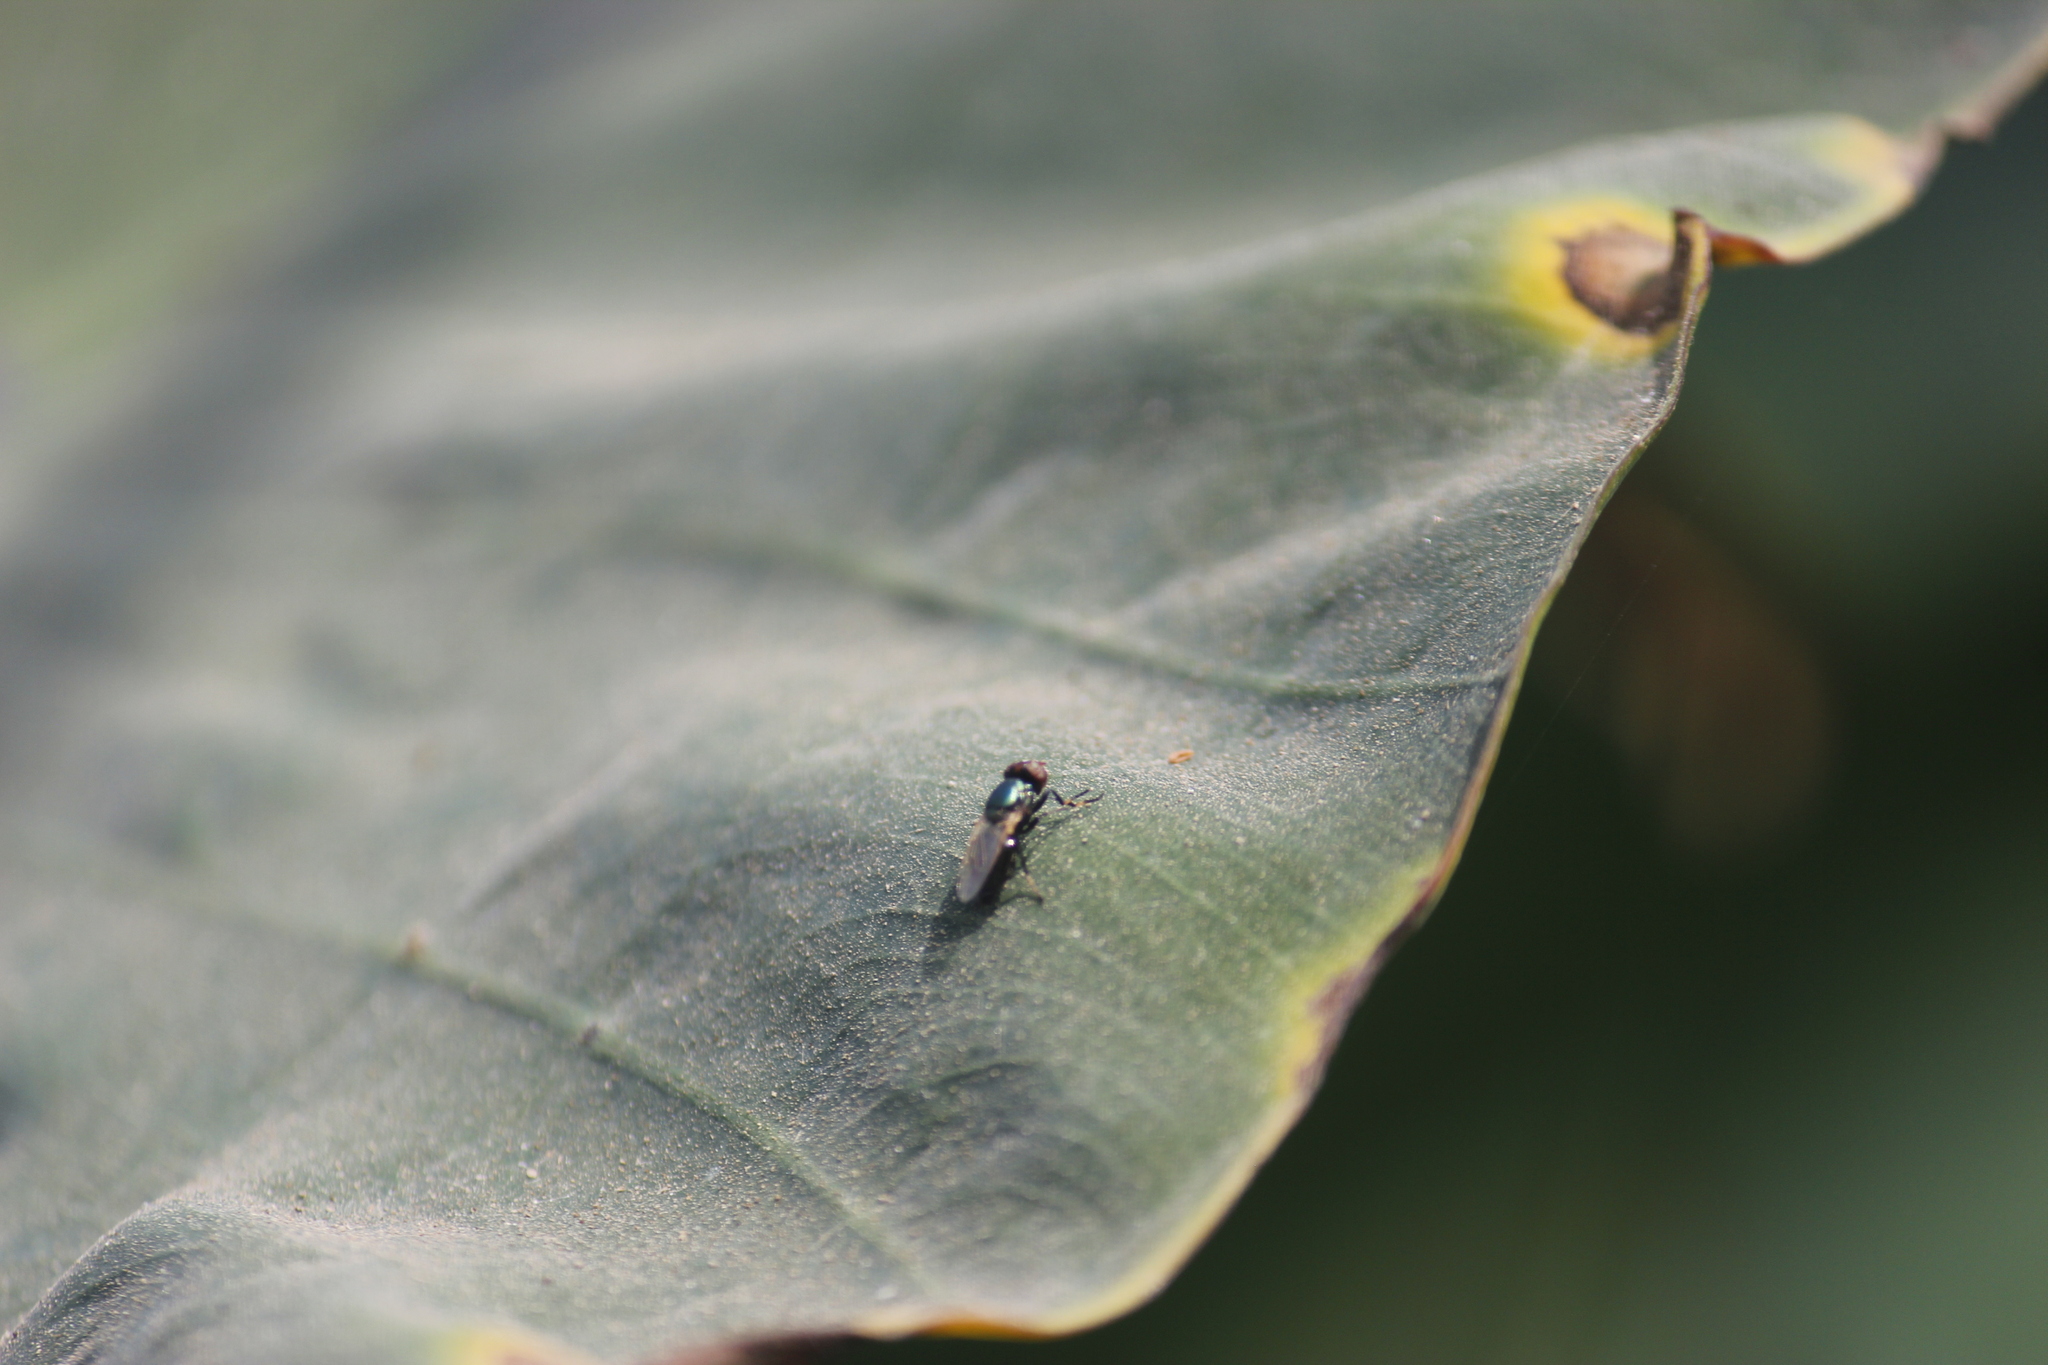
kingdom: Animalia
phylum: Arthropoda
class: Insecta
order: Diptera
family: Ulidiidae
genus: Physiphora
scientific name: Physiphora alceae
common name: Picture-winged fly
